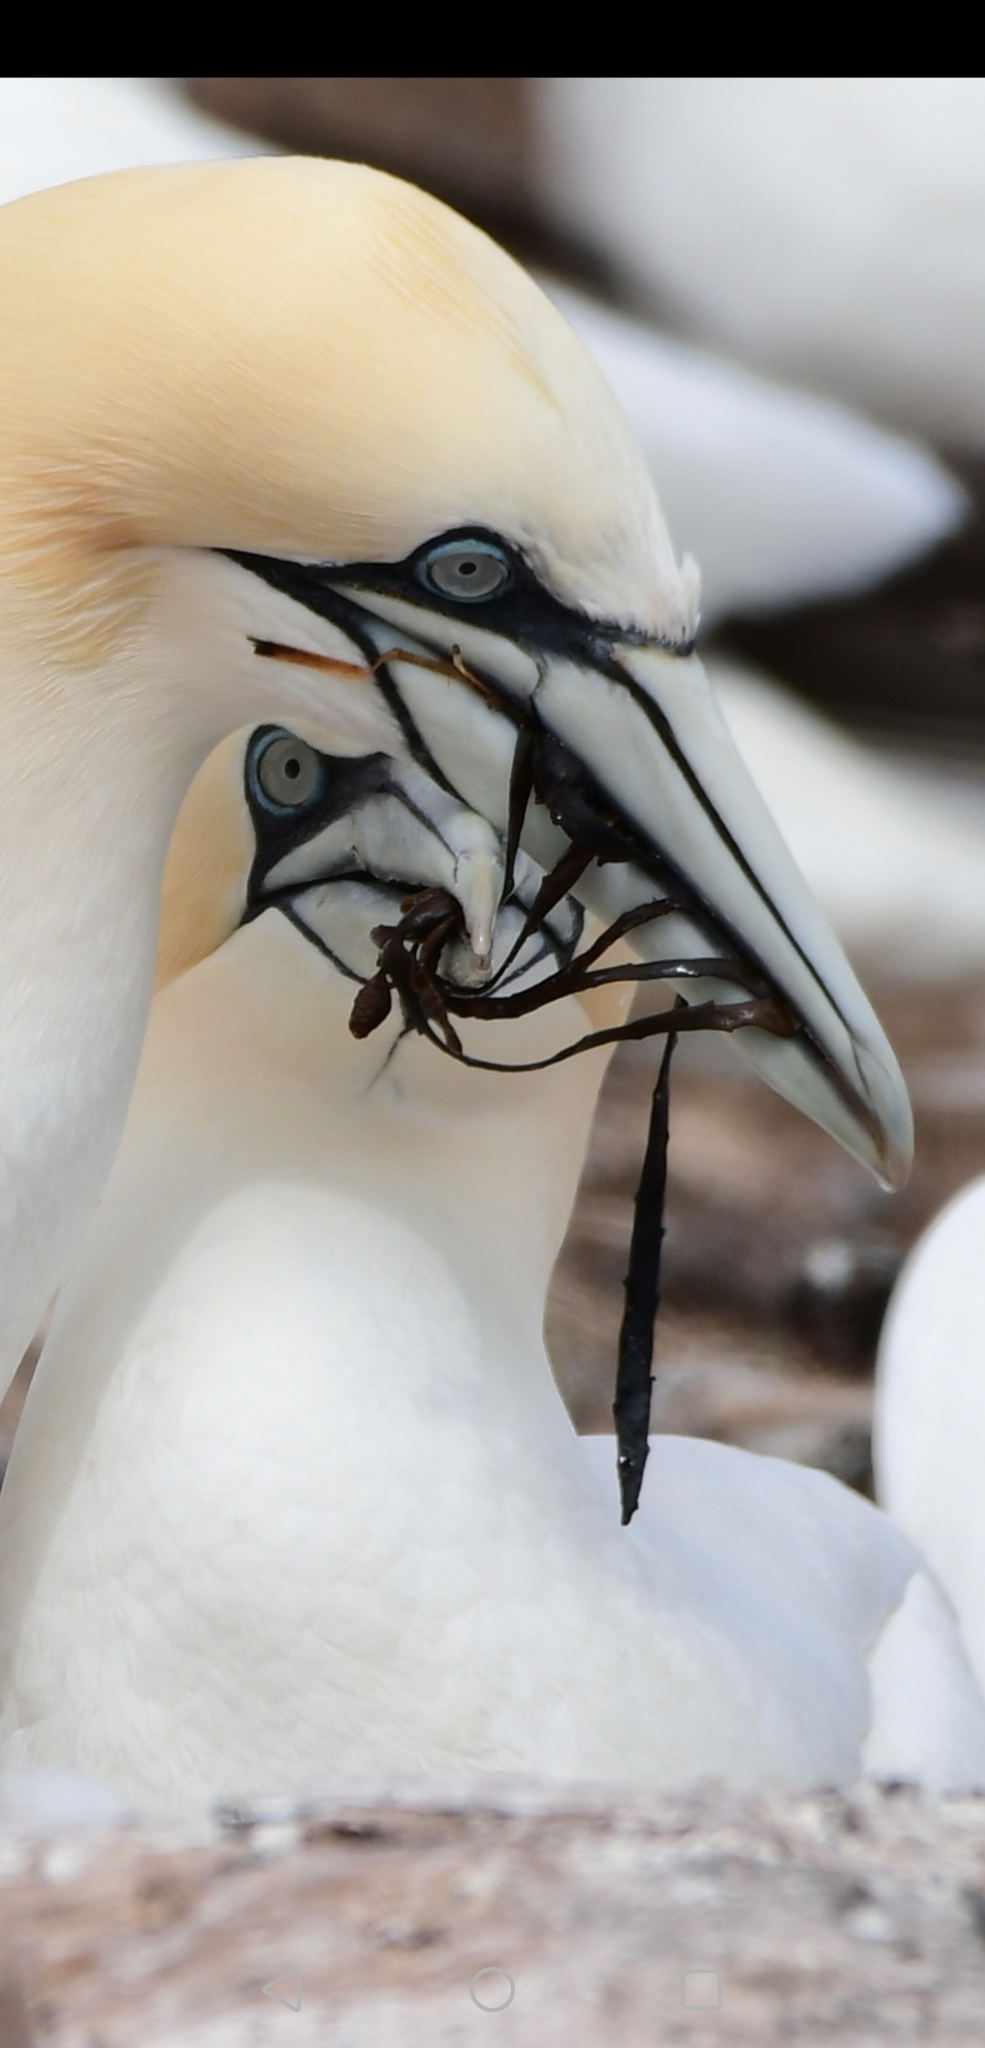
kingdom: Animalia
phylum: Chordata
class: Aves
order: Suliformes
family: Sulidae
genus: Morus
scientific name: Morus bassanus
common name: Northern gannet
